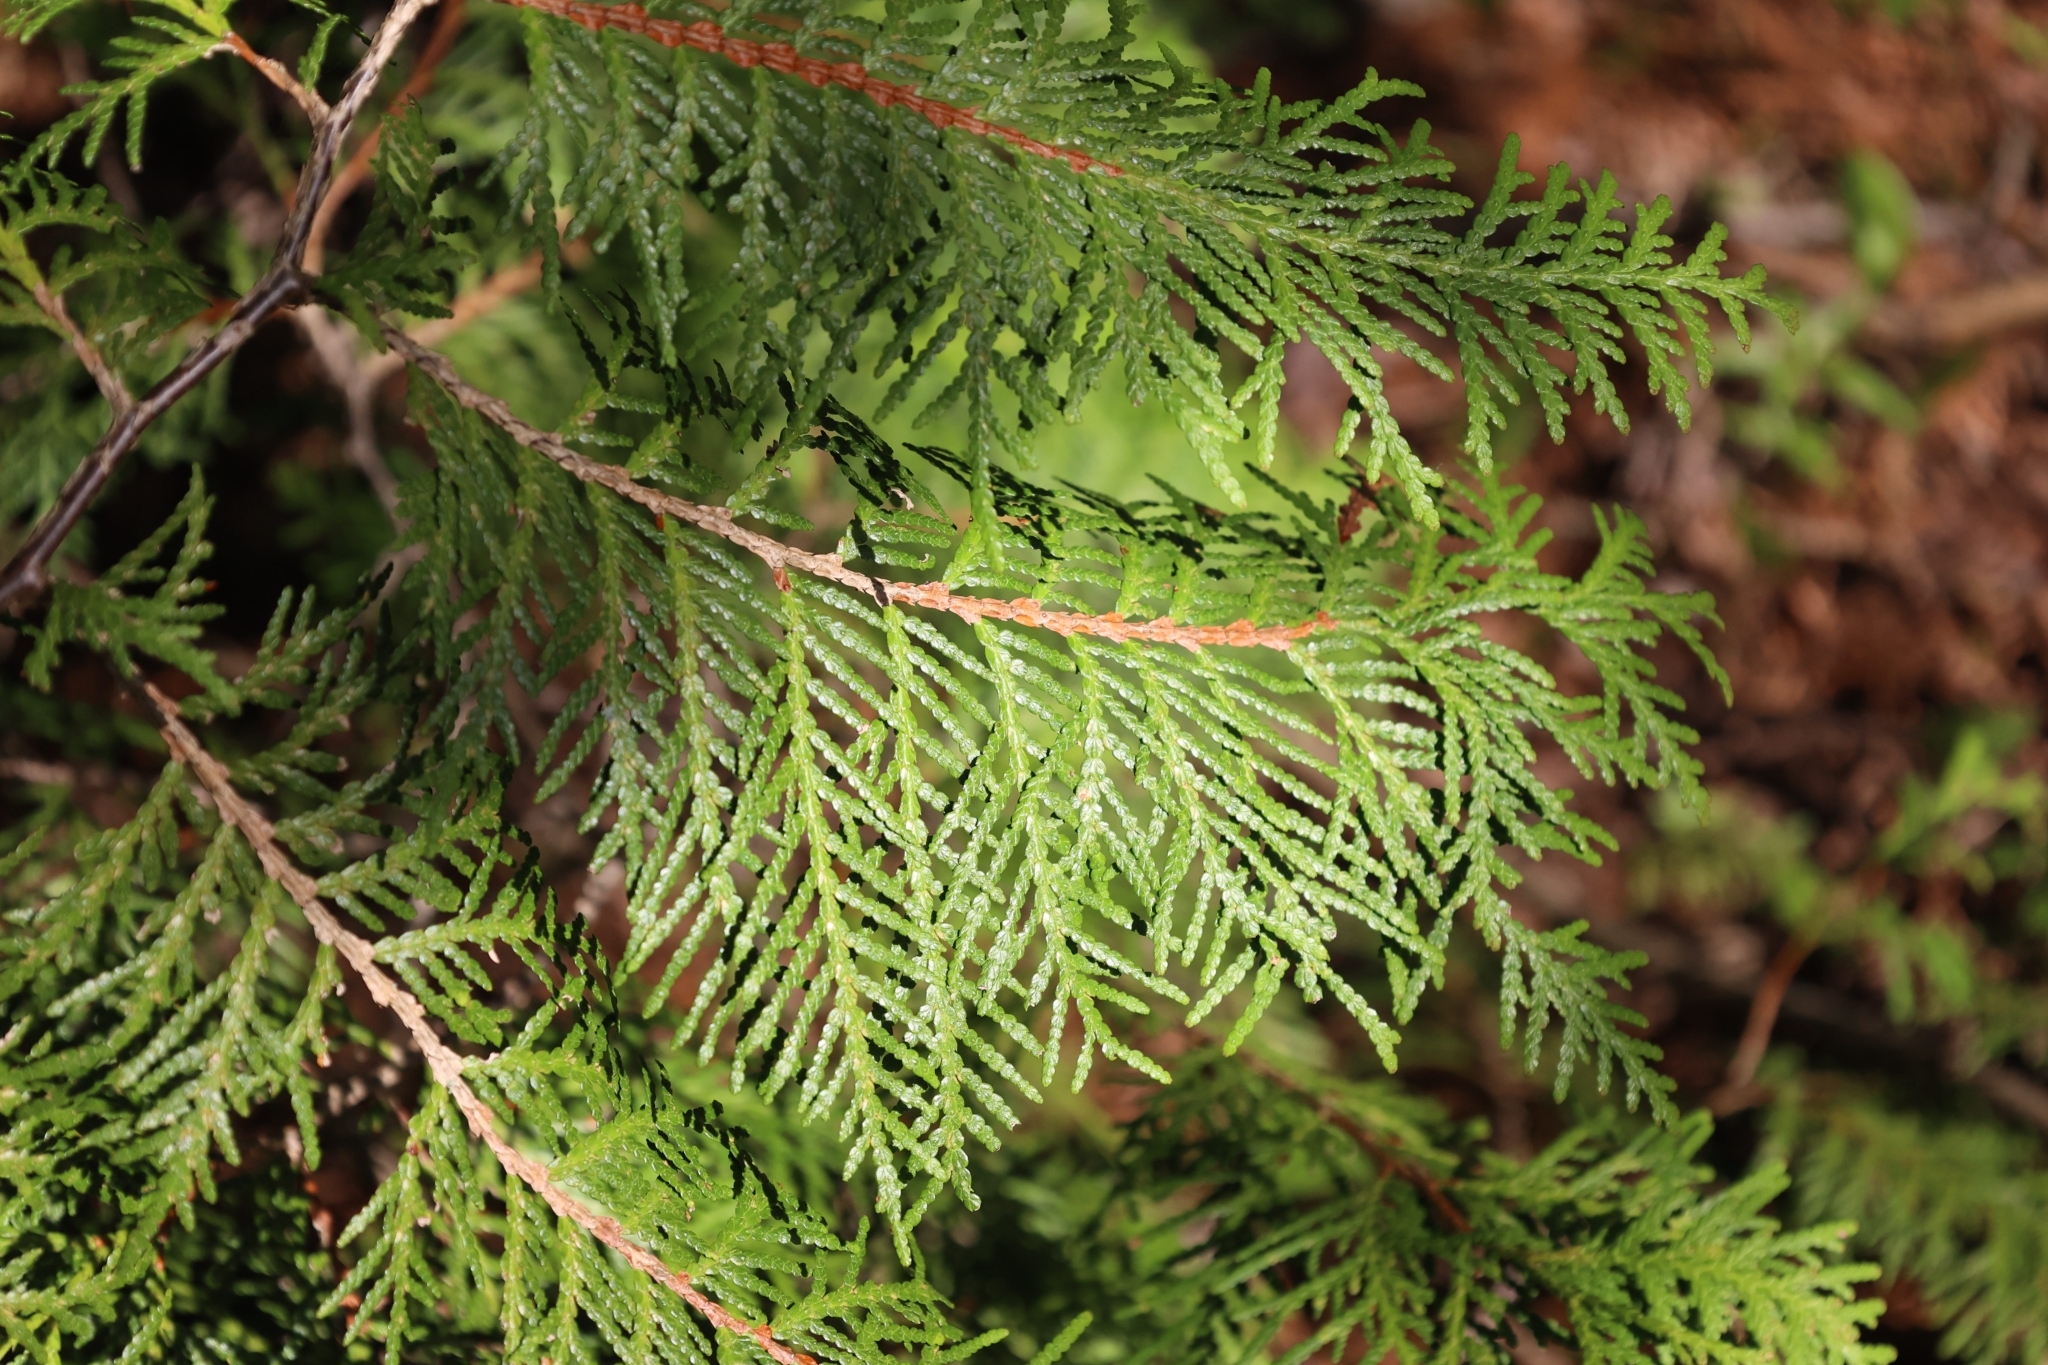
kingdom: Plantae
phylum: Tracheophyta
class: Pinopsida
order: Pinales
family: Cupressaceae
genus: Thuja
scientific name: Thuja occidentalis
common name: Northern white-cedar
